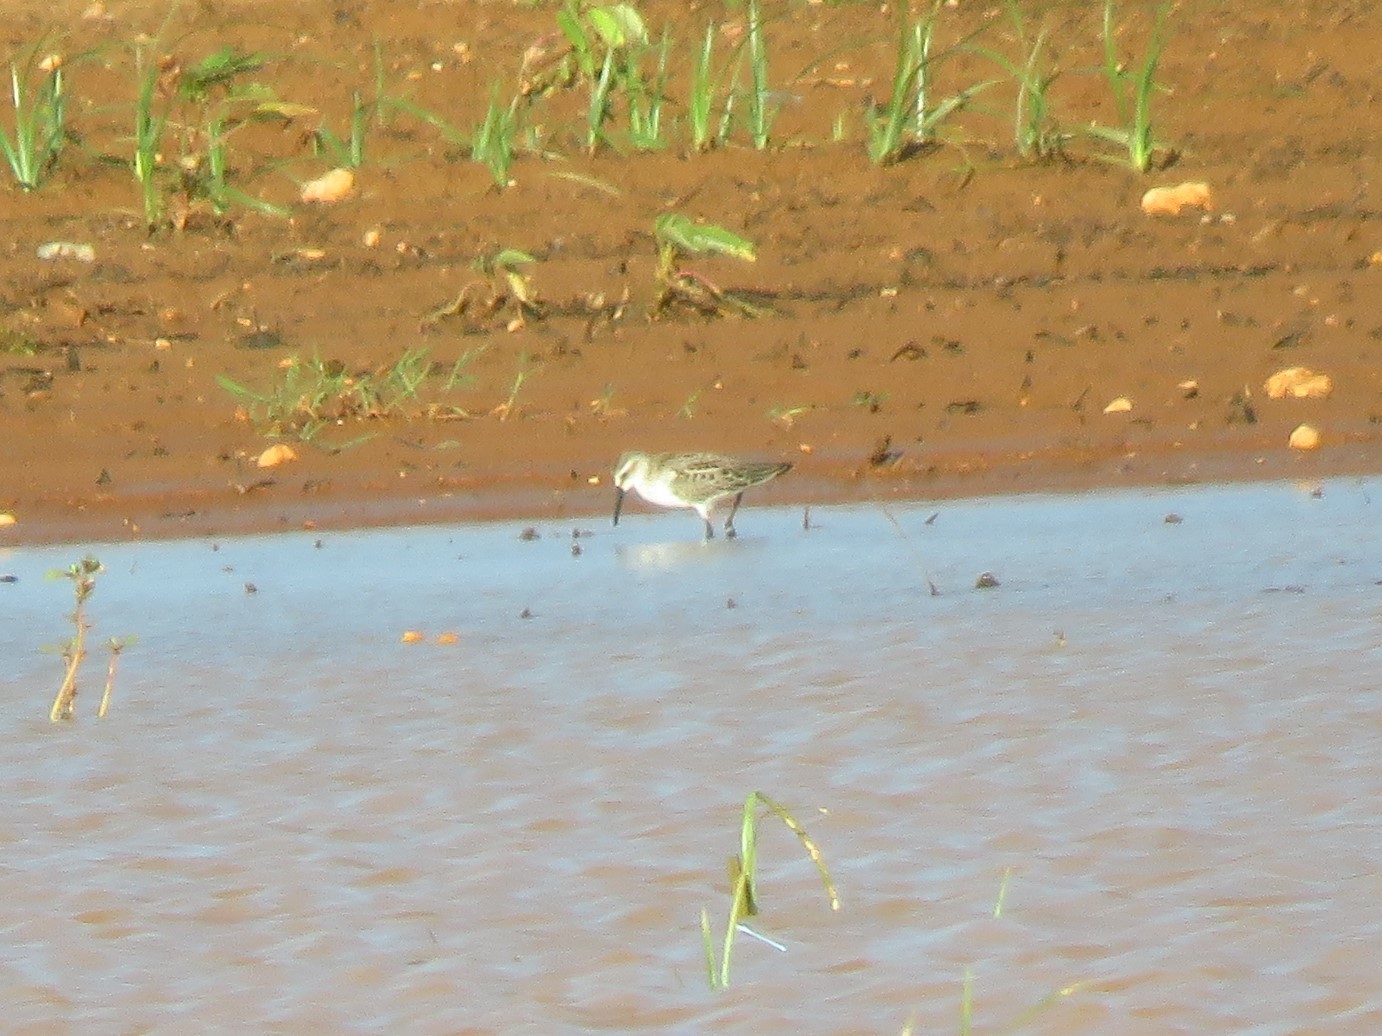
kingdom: Animalia
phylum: Chordata
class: Aves
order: Charadriiformes
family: Scolopacidae
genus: Calidris
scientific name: Calidris mauri
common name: Western sandpiper
